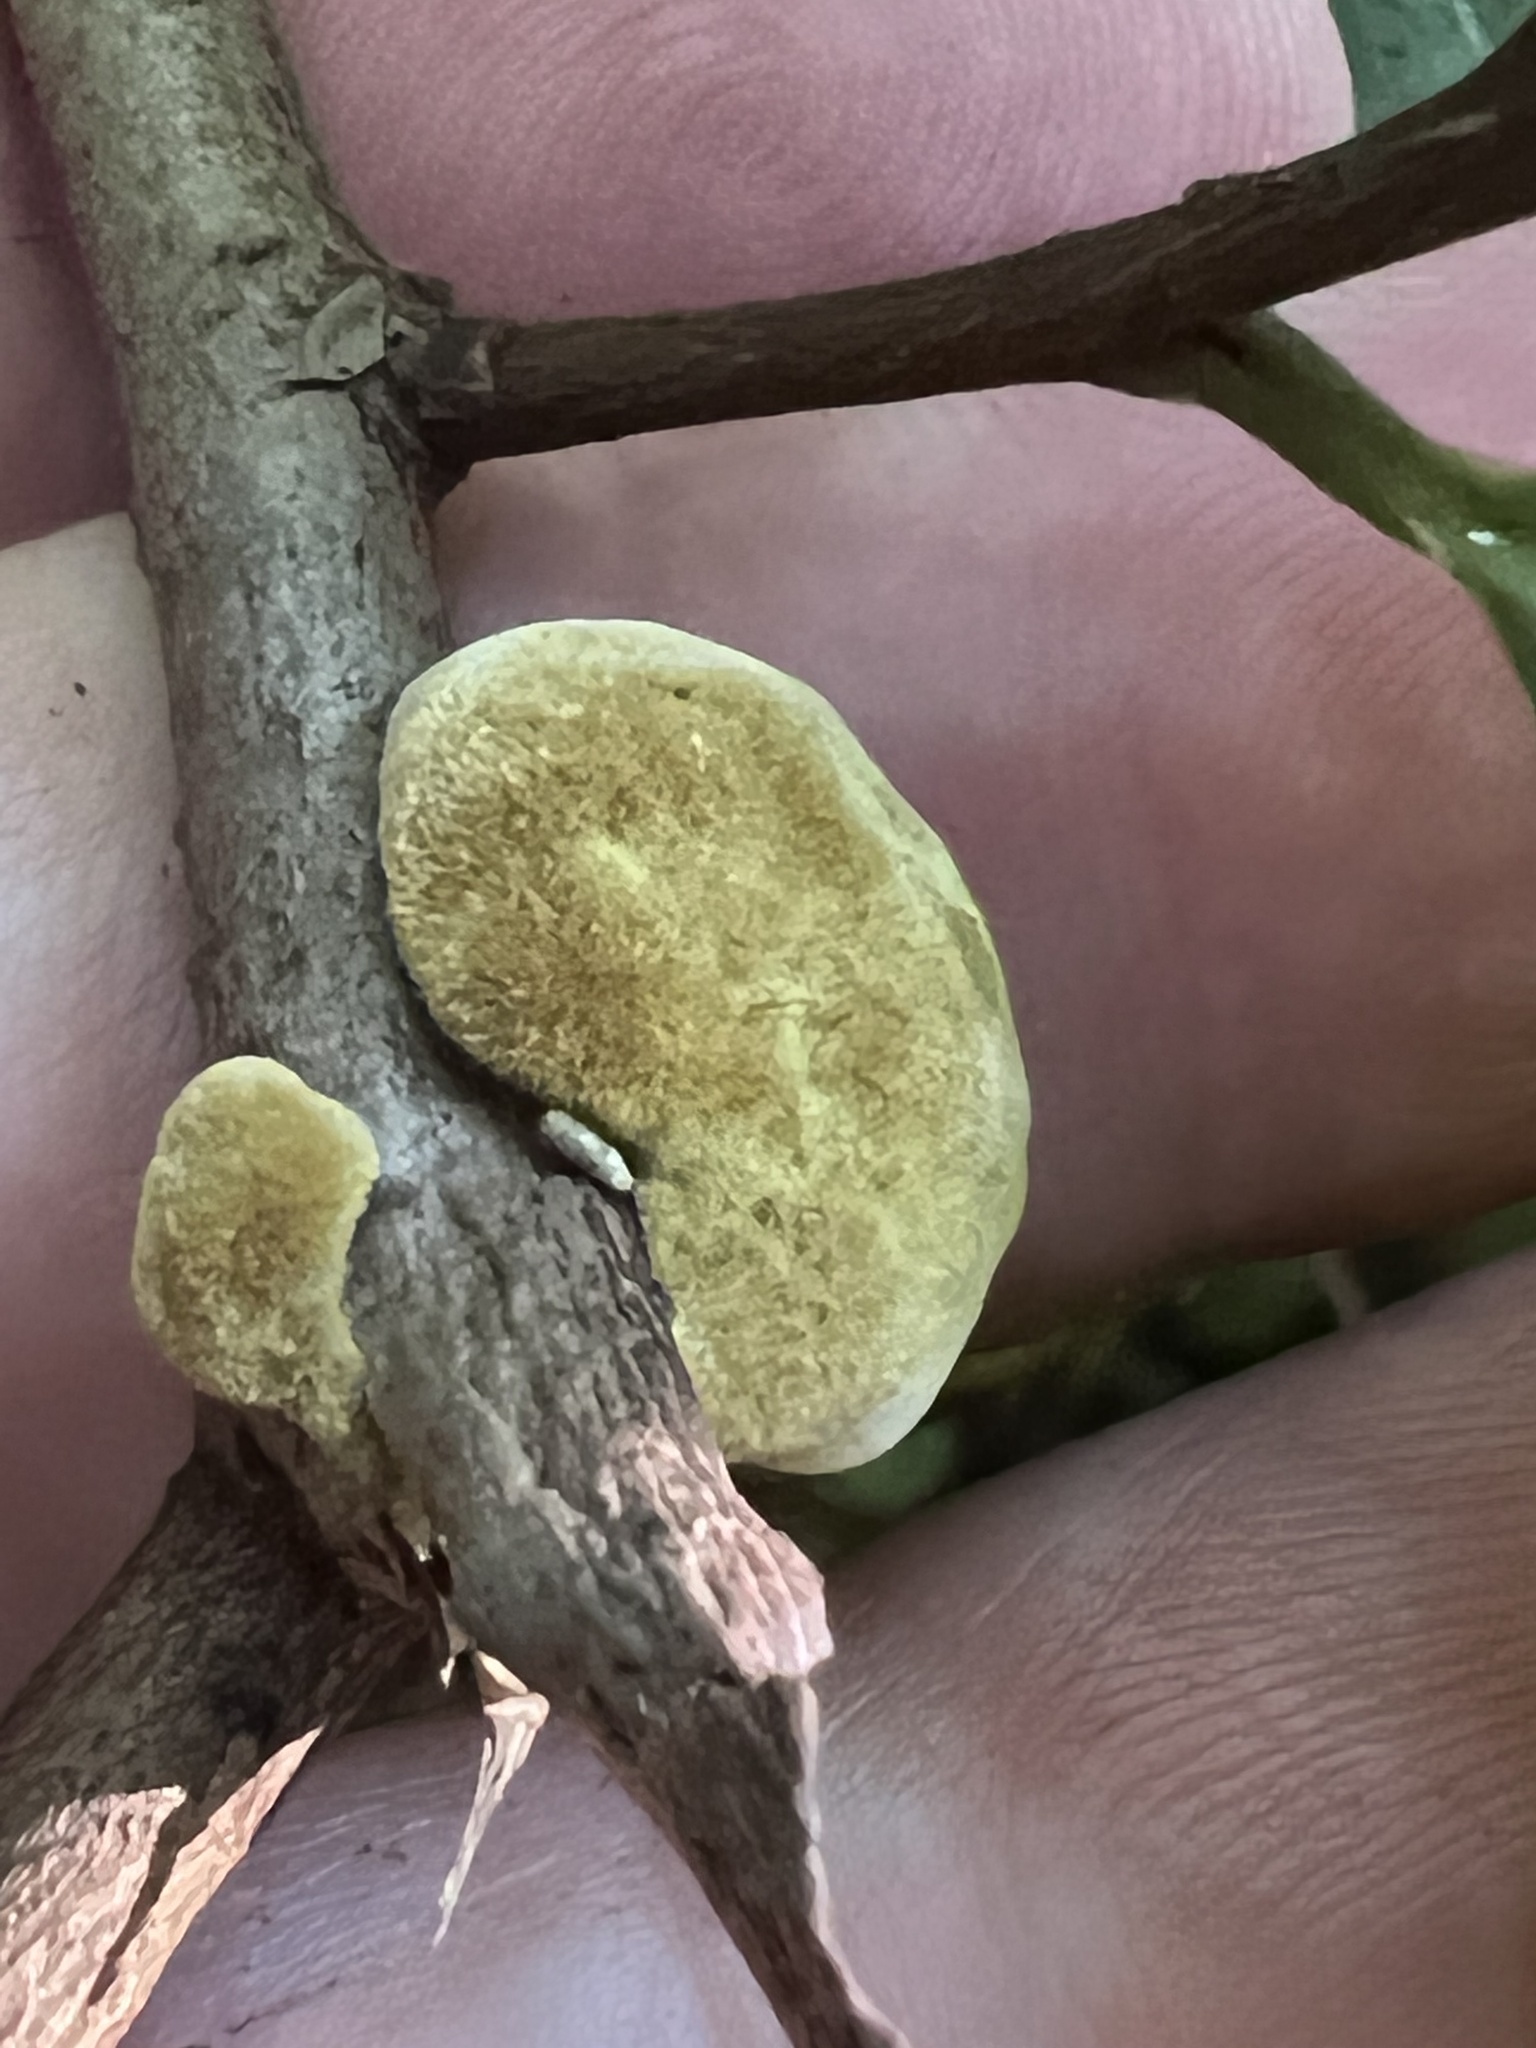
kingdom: Fungi
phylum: Basidiomycota
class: Agaricomycetes
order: Hymenochaetales
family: Hymenochaetaceae
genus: Phylloporia
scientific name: Phylloporia amplectens
